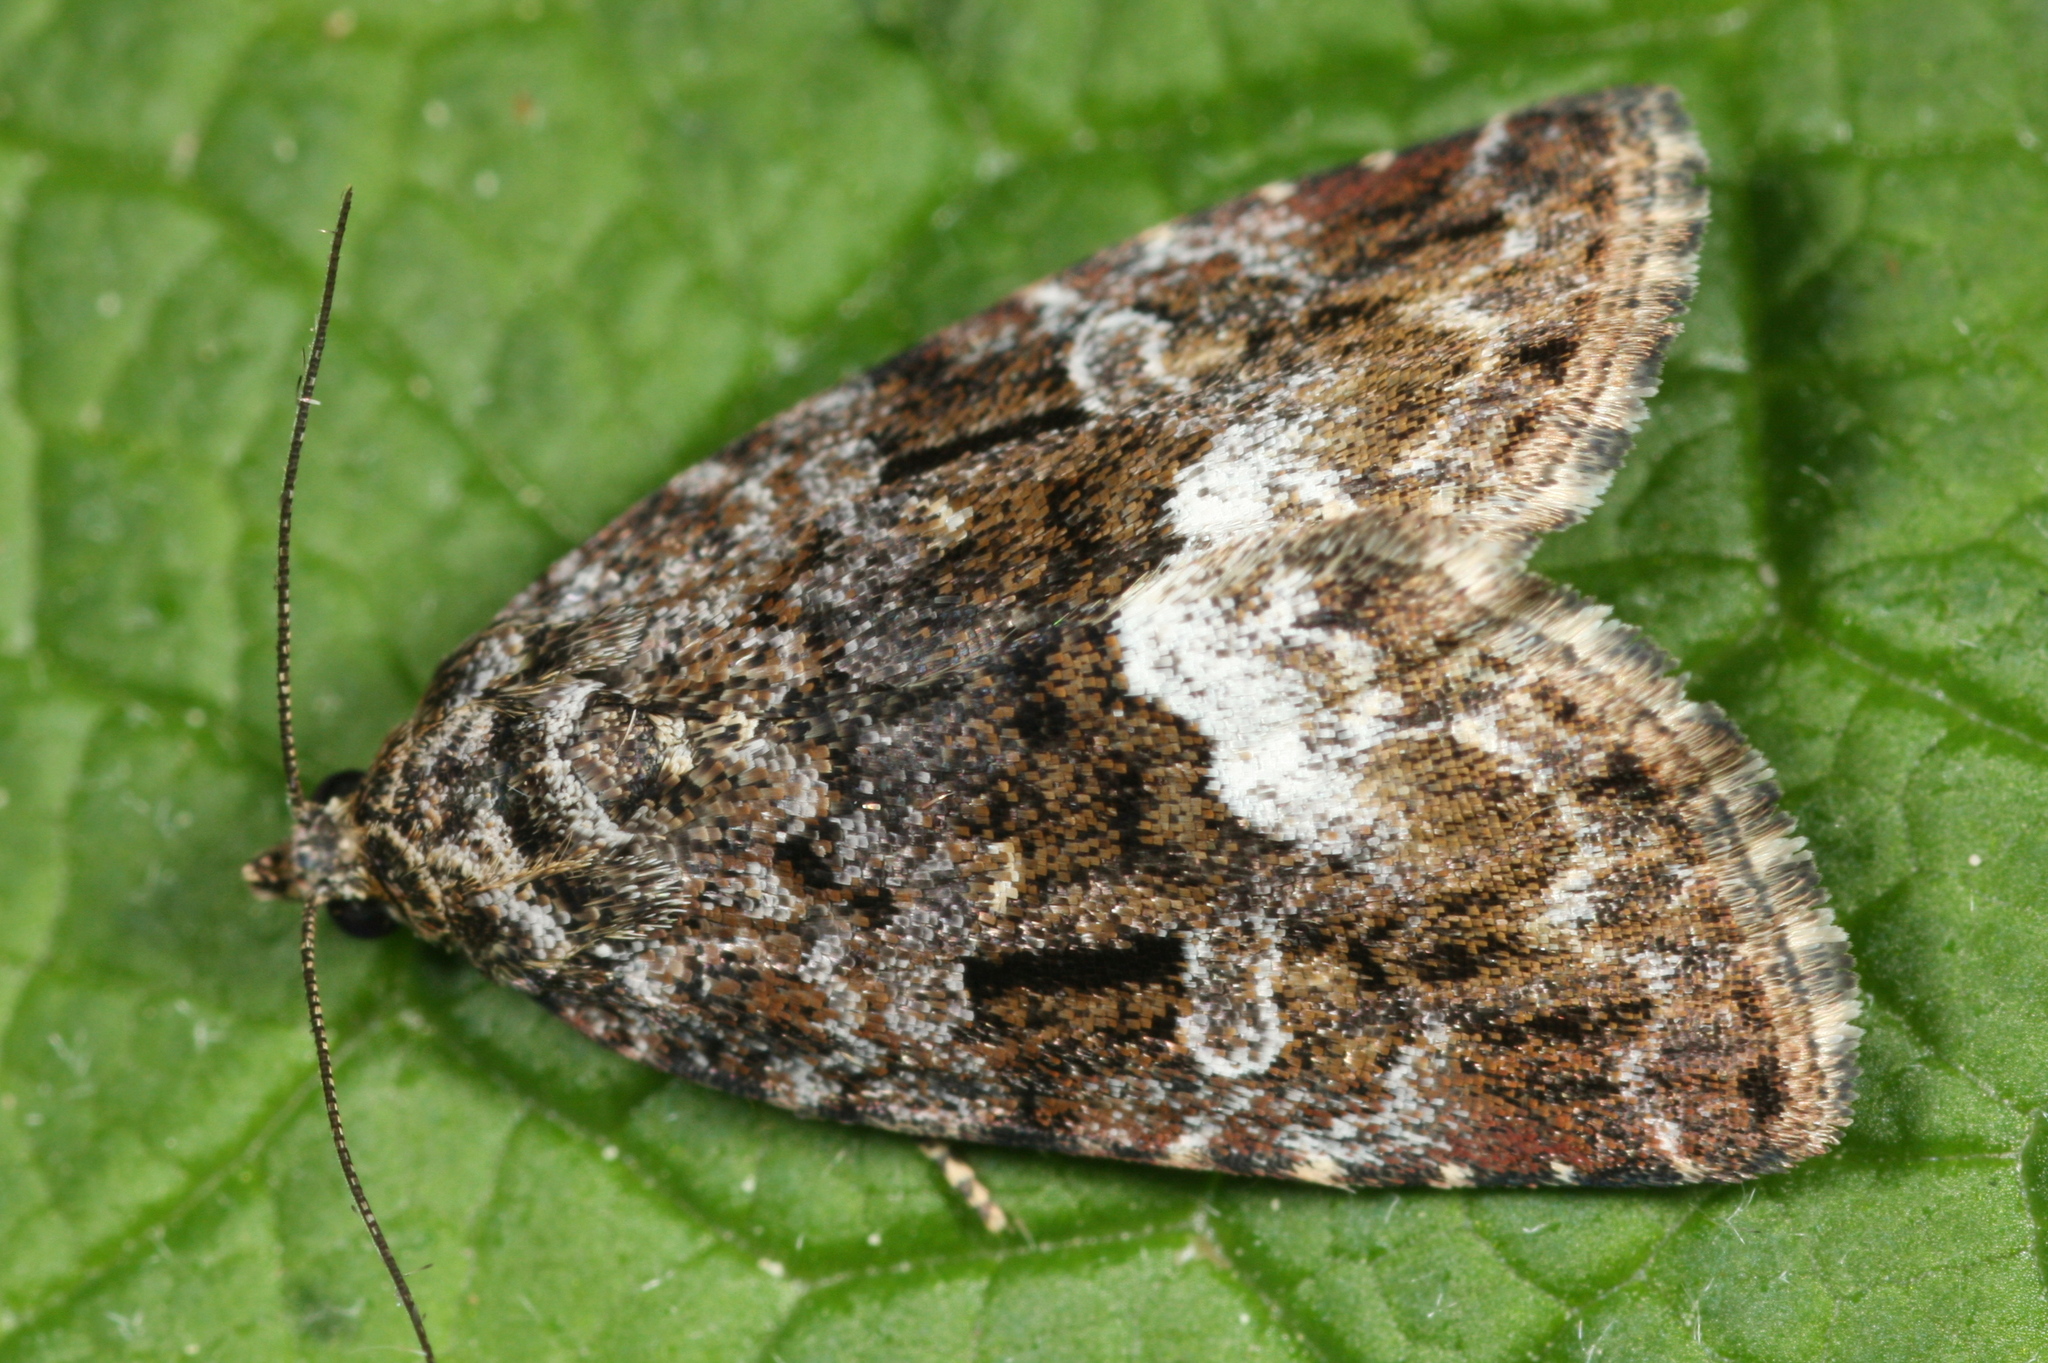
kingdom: Animalia
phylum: Arthropoda
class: Insecta
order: Lepidoptera
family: Noctuidae
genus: Deltote
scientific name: Deltote pygarga
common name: Marbled white spot
